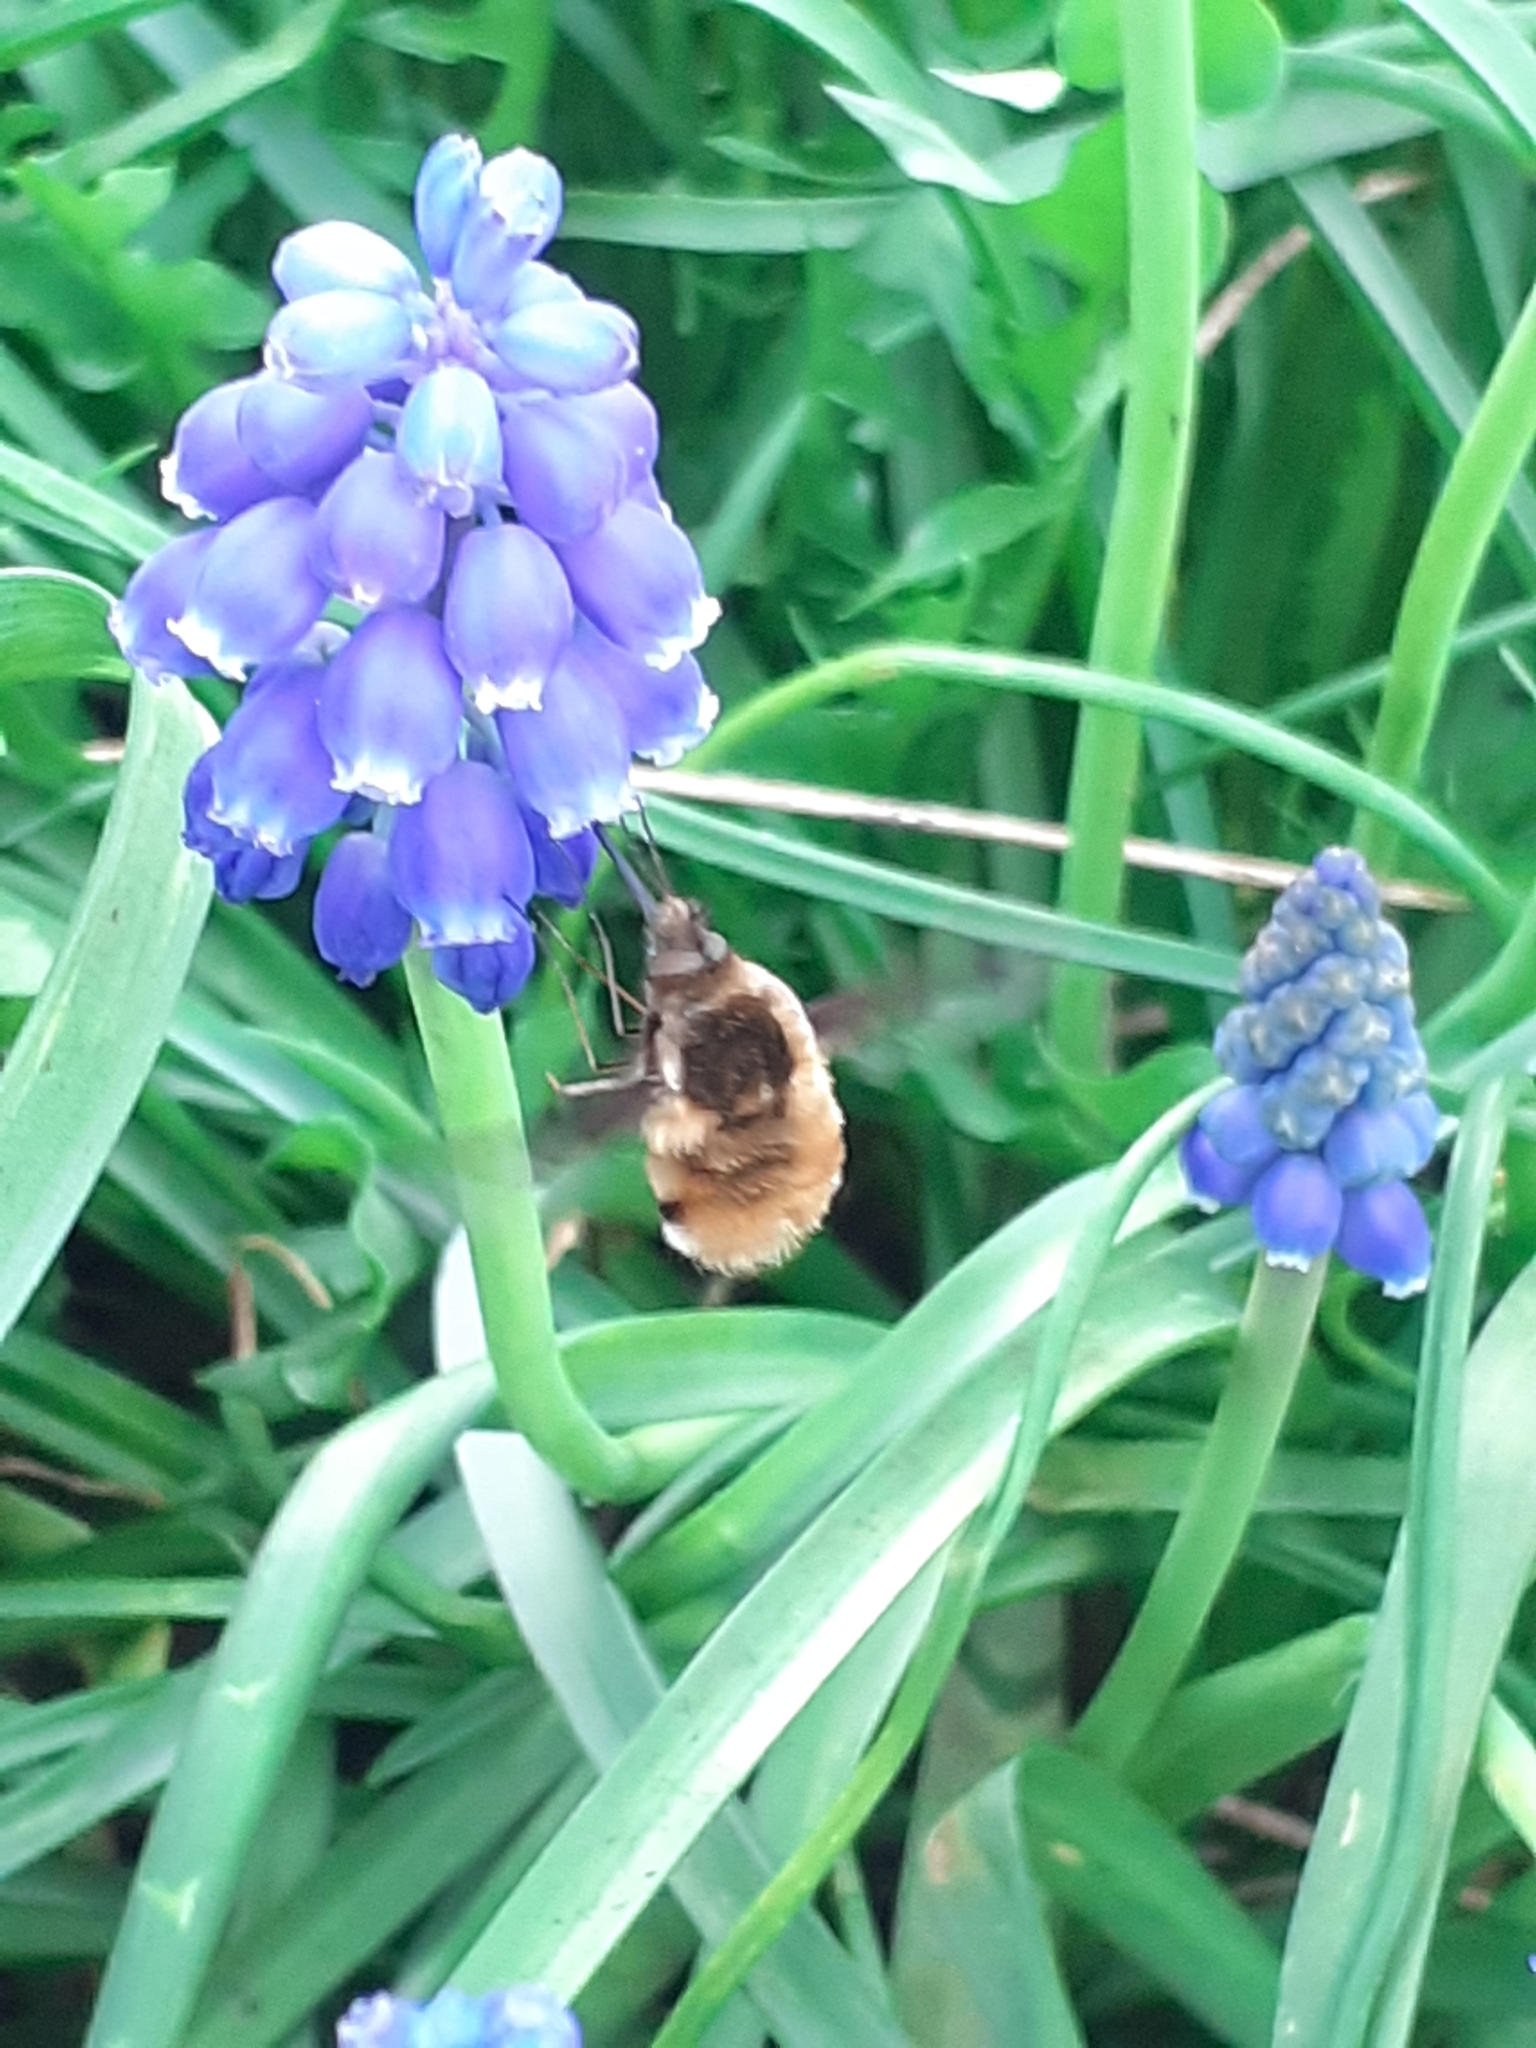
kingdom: Animalia
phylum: Arthropoda
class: Insecta
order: Diptera
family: Bombyliidae
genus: Bombylius
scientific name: Bombylius major
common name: Bee fly
